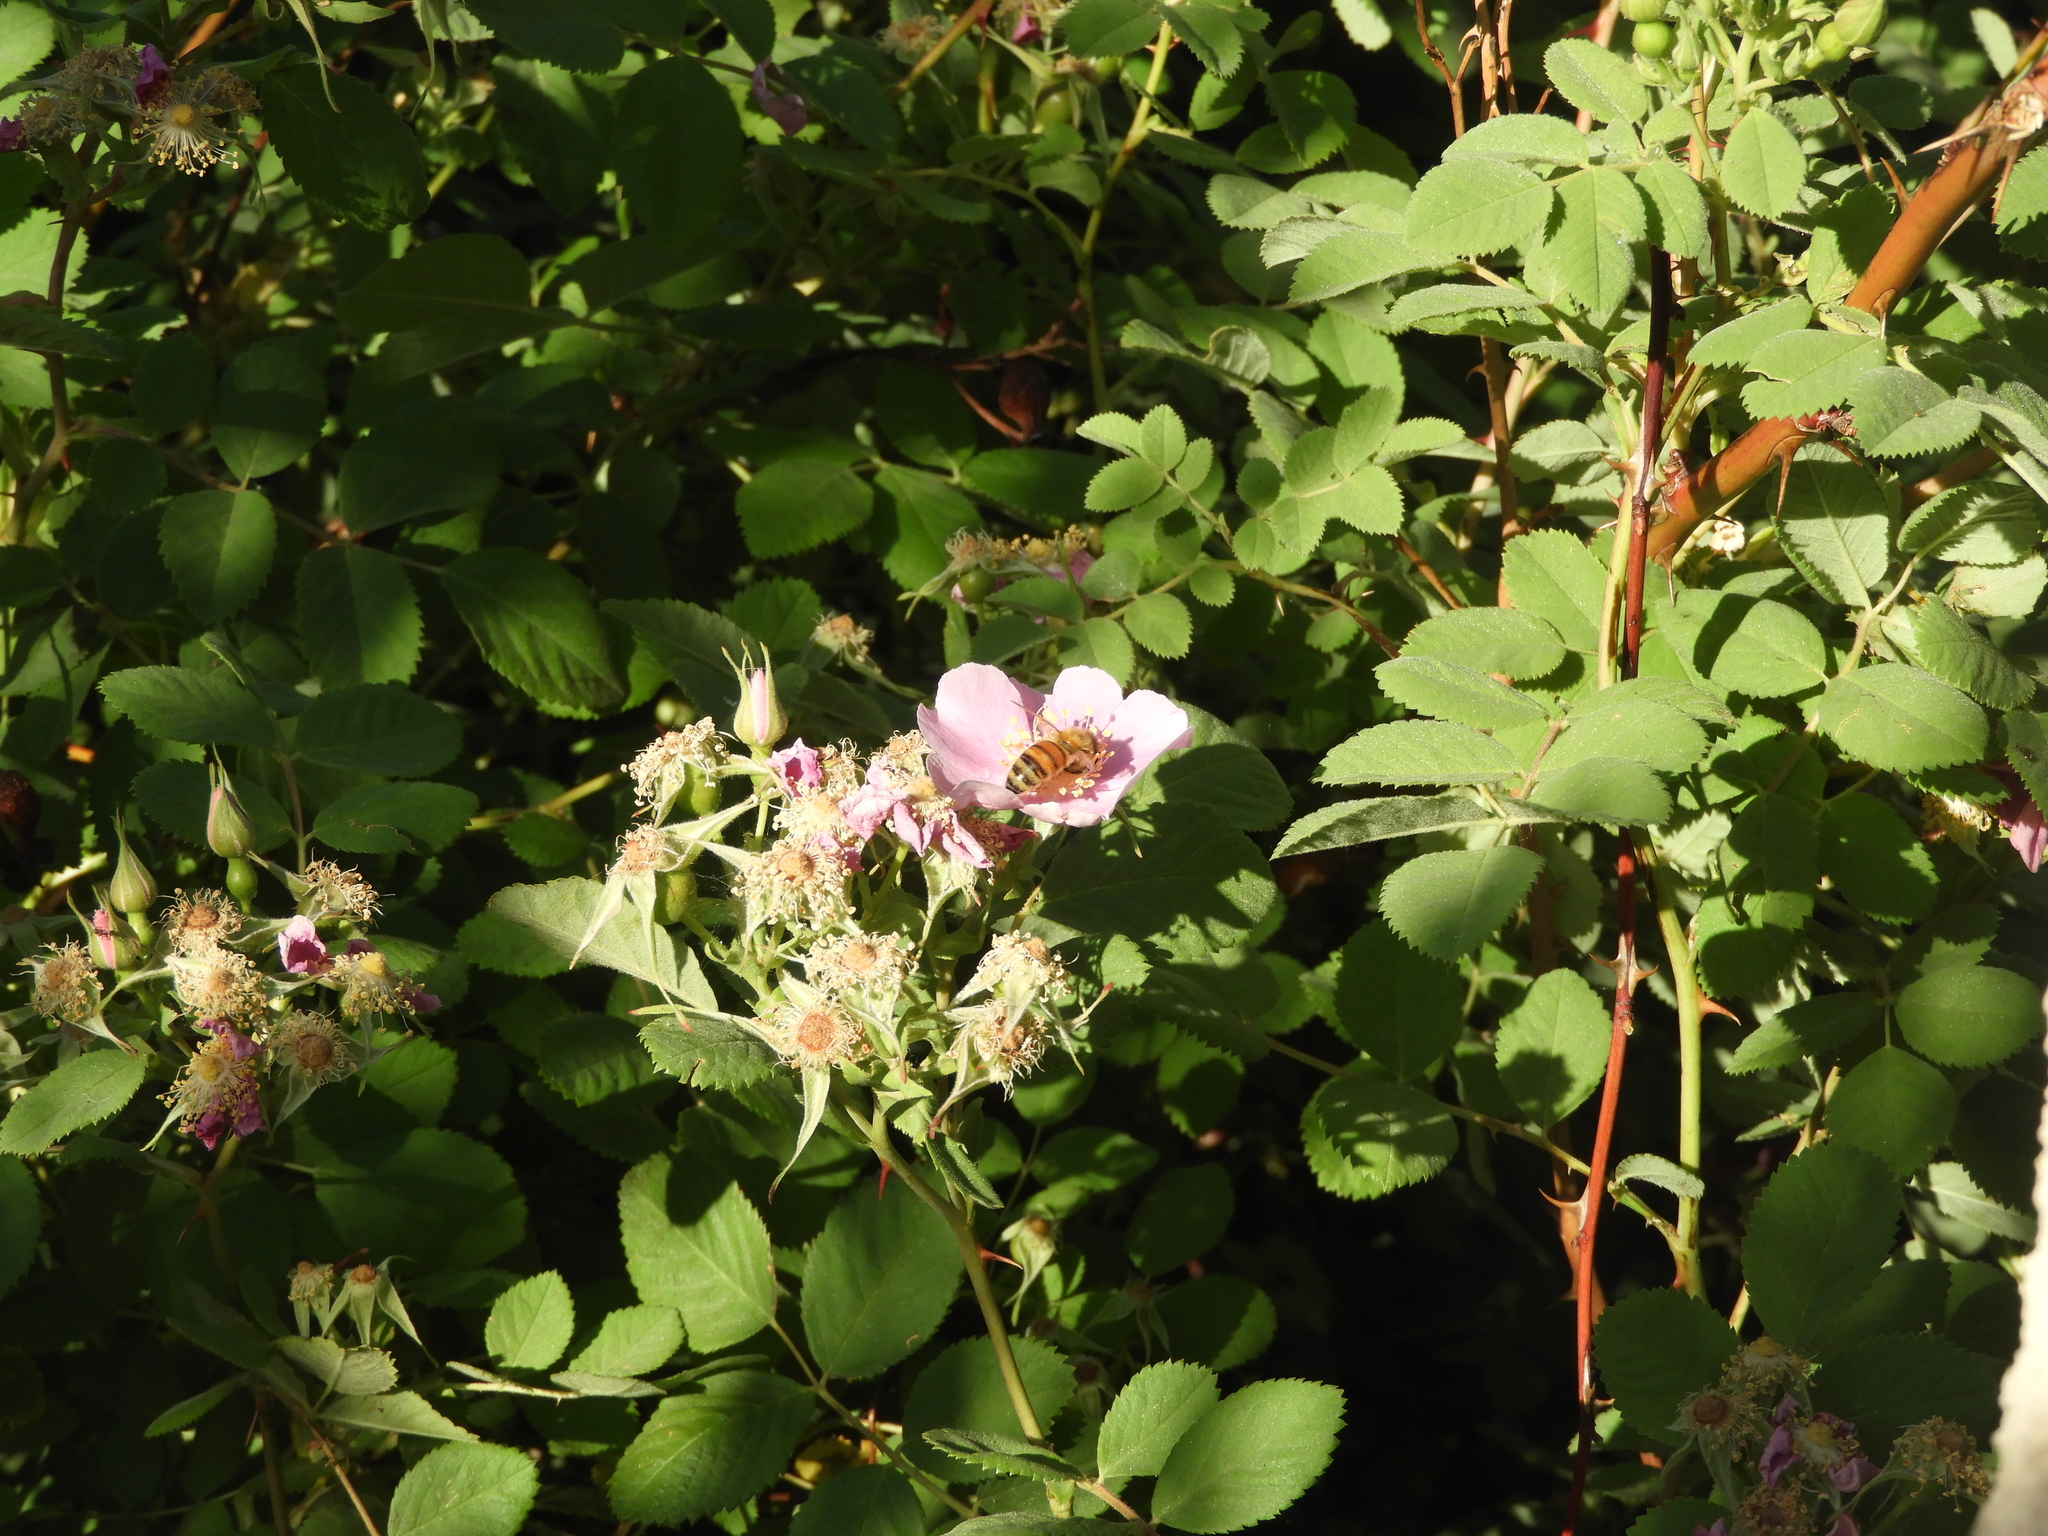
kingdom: Plantae
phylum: Tracheophyta
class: Magnoliopsida
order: Rosales
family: Rosaceae
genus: Rosa
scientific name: Rosa californica
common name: California rose
